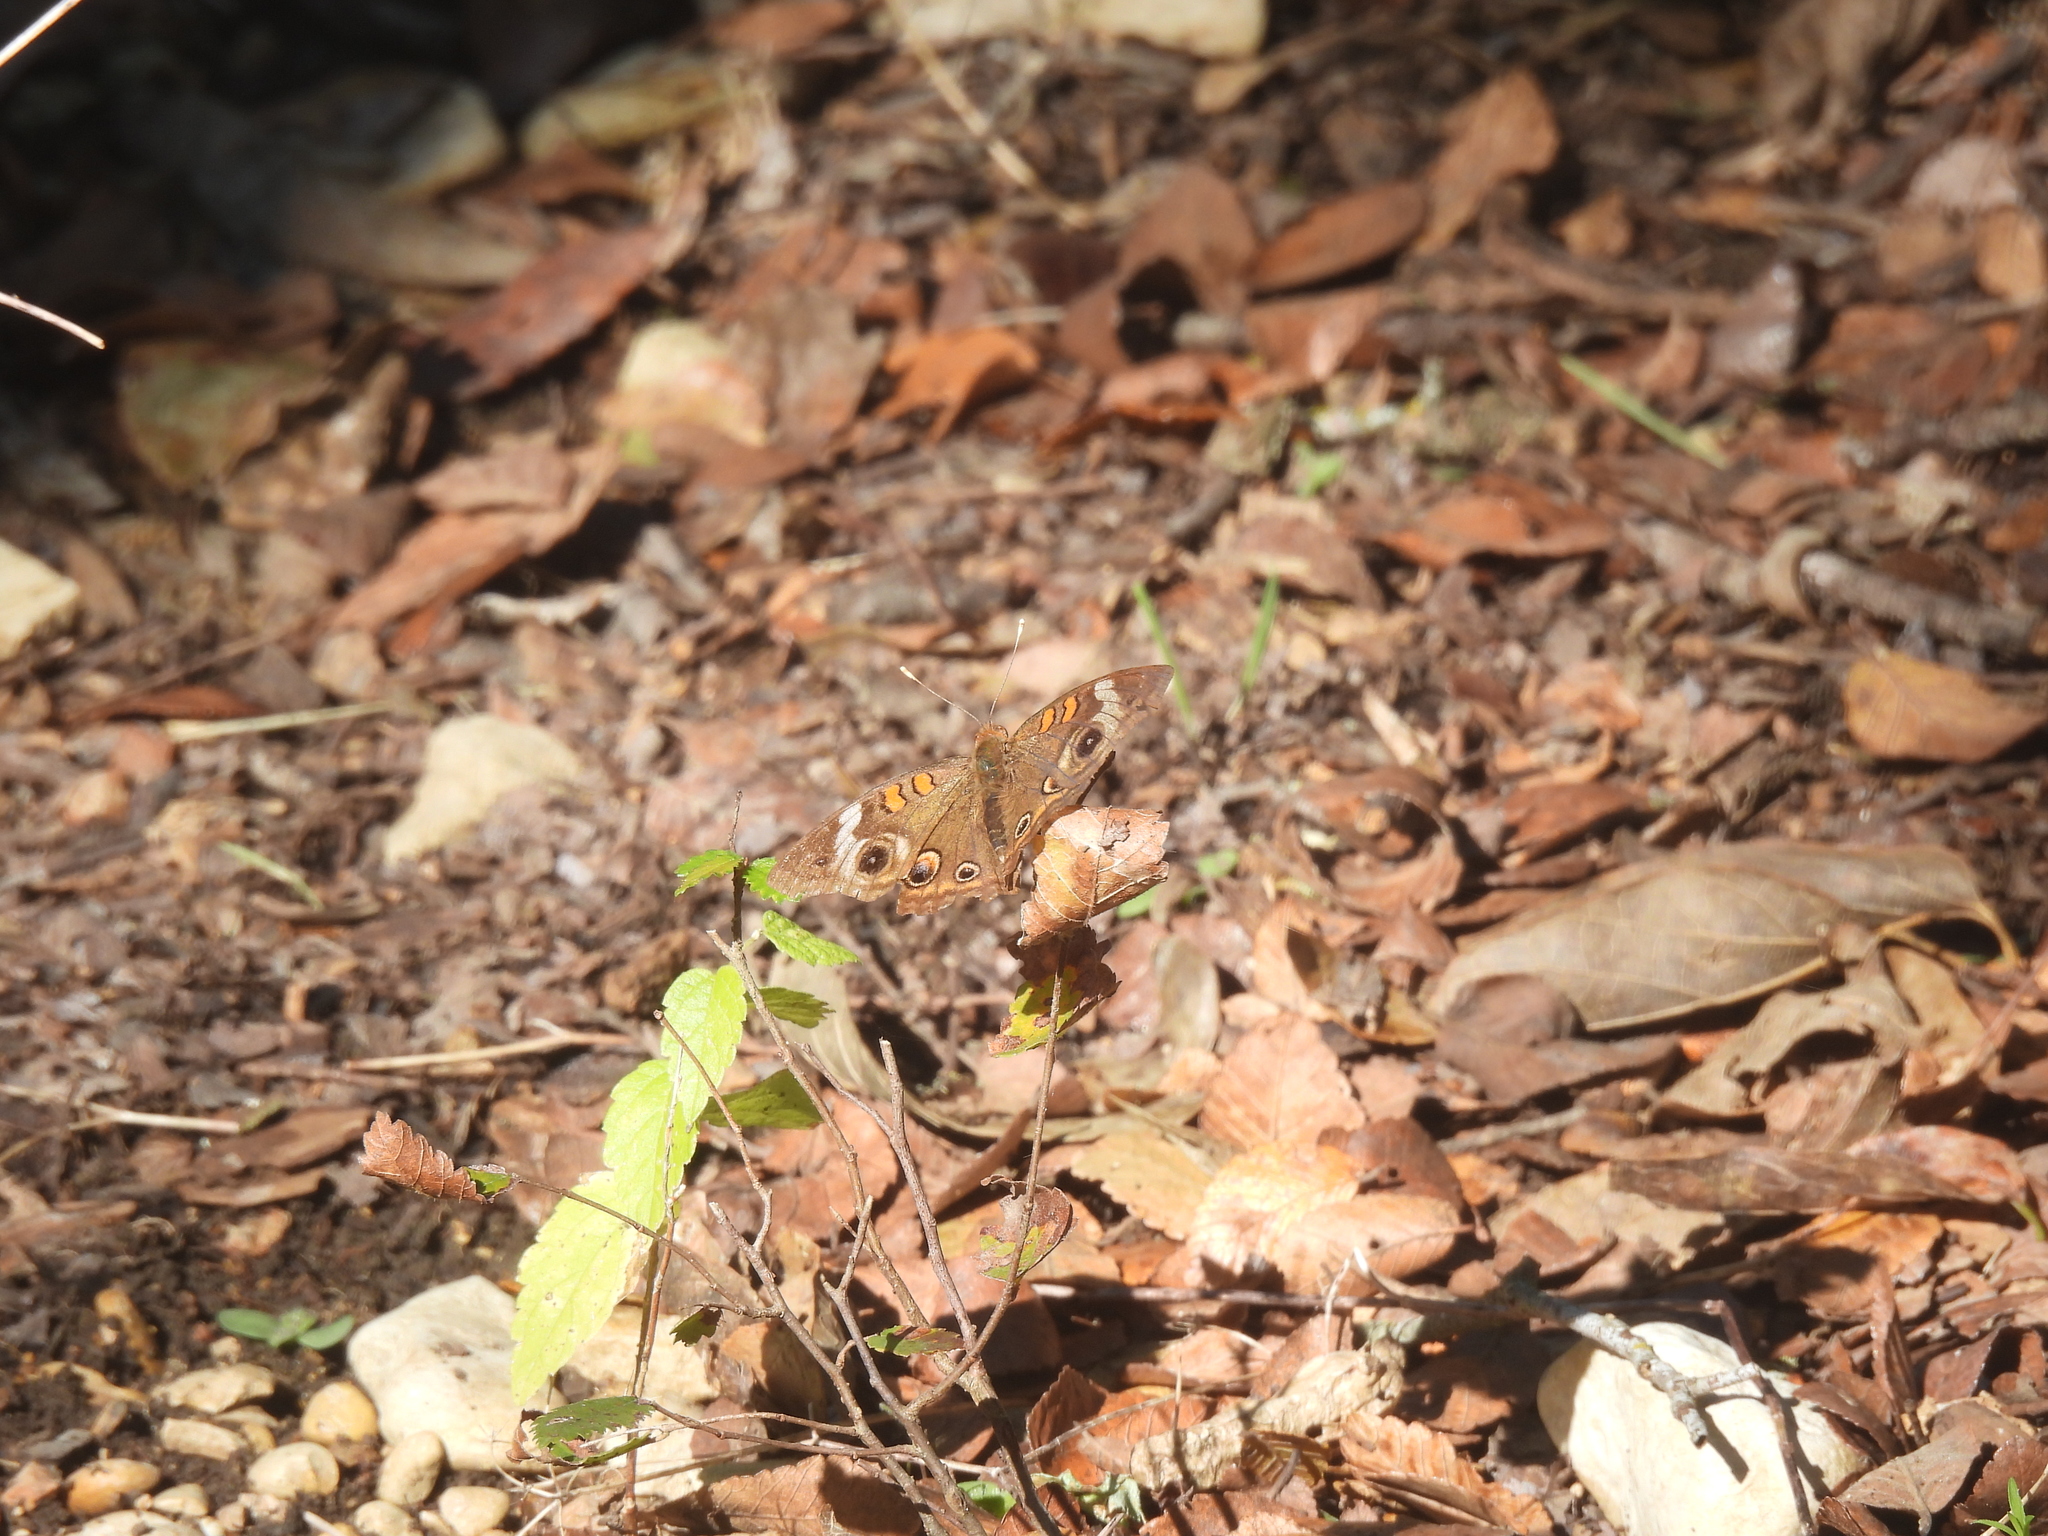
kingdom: Animalia
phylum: Arthropoda
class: Insecta
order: Lepidoptera
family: Nymphalidae
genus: Junonia
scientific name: Junonia coenia
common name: Common buckeye
